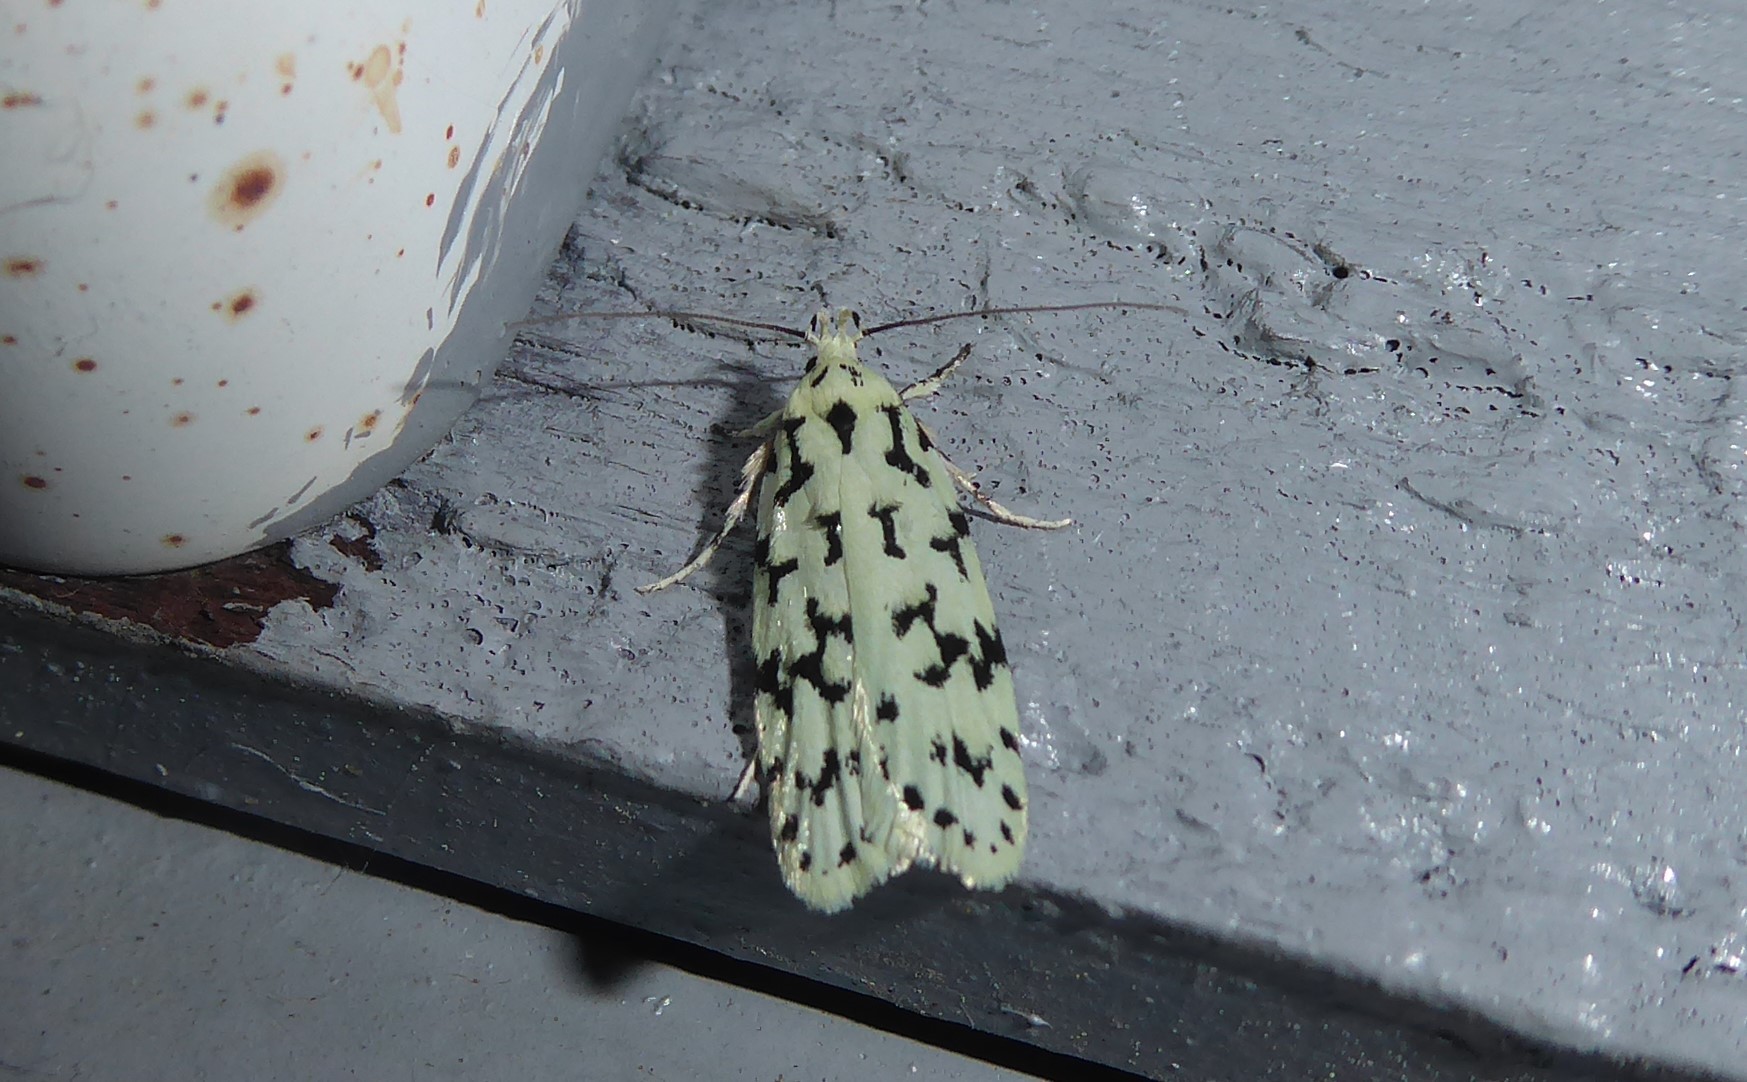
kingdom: Animalia
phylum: Arthropoda
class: Insecta
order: Lepidoptera
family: Oecophoridae
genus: Izatha
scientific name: Izatha huttoni
